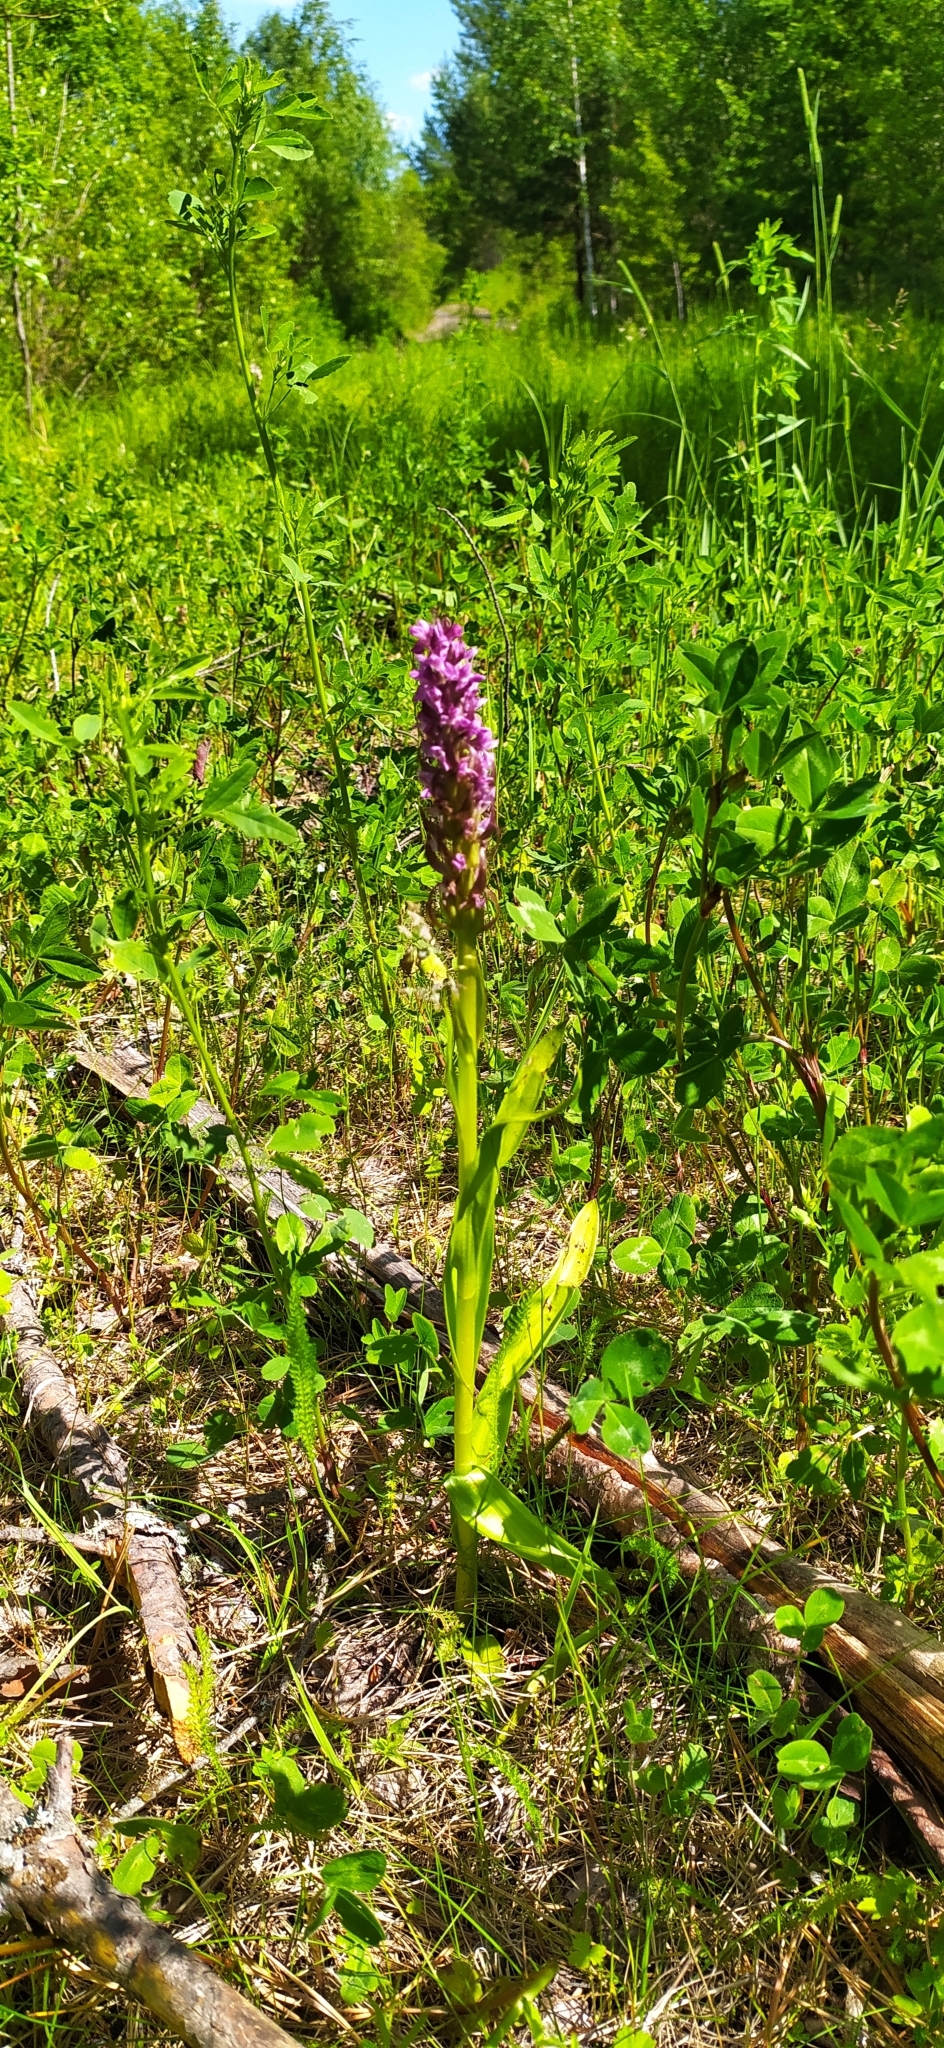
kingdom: Plantae
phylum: Tracheophyta
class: Liliopsida
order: Asparagales
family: Orchidaceae
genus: Dactylorhiza
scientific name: Dactylorhiza incarnata
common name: Early marsh-orchid
